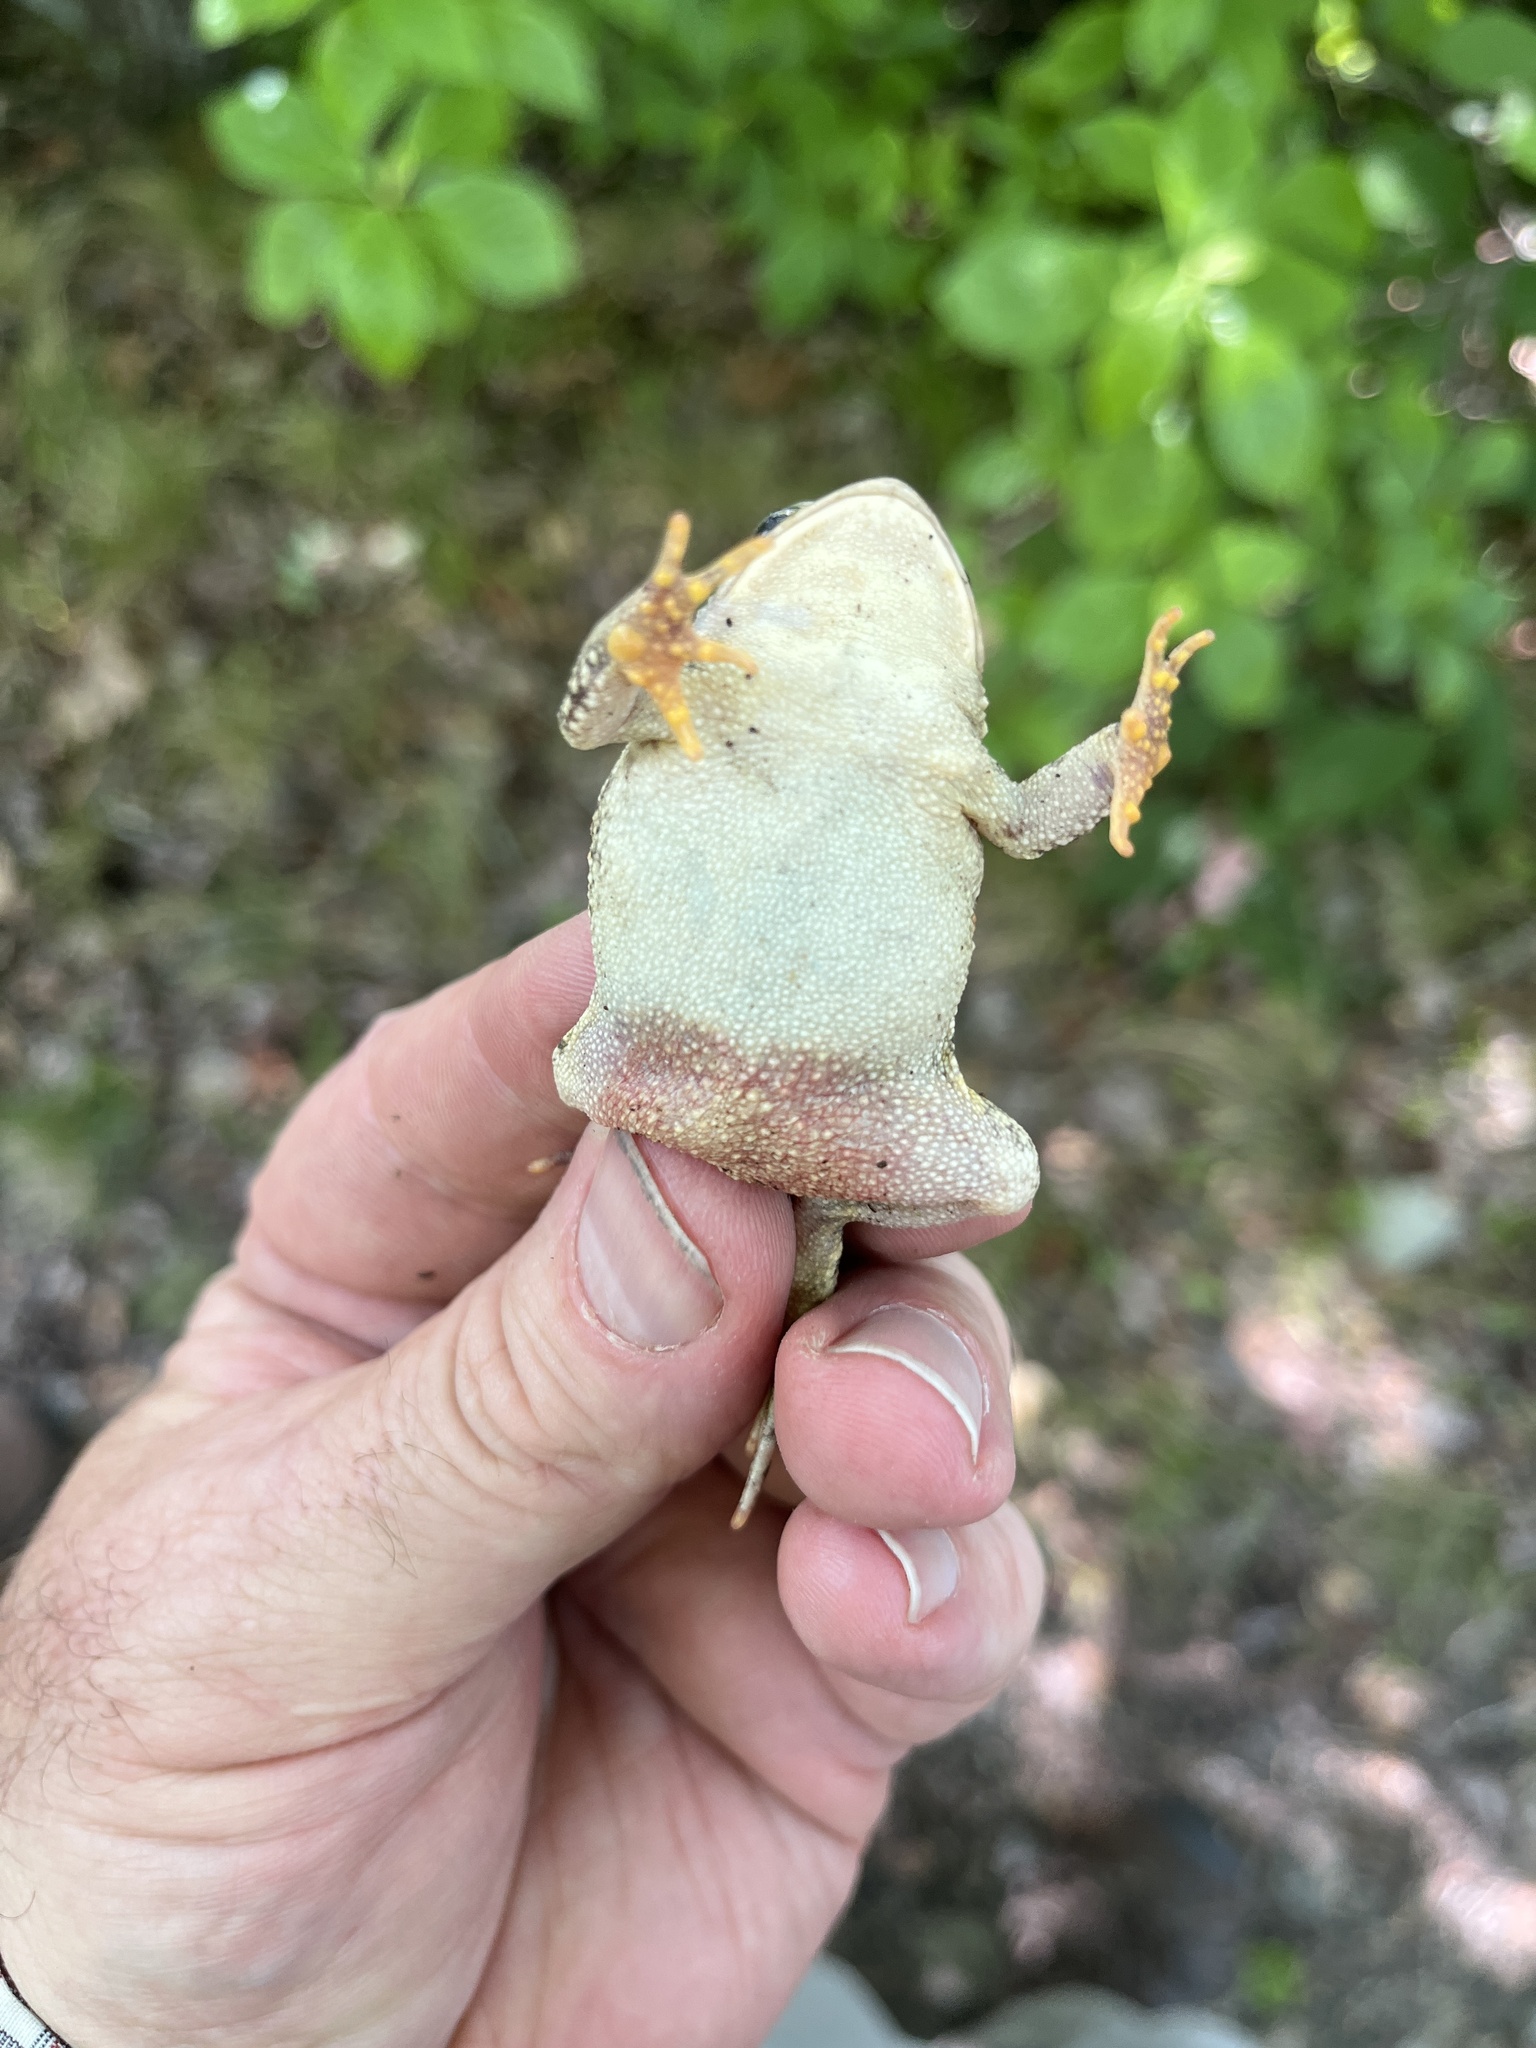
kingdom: Animalia
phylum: Chordata
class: Amphibia
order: Anura
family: Bufonidae
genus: Anaxyrus
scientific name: Anaxyrus fowleri
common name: Fowler's toad
